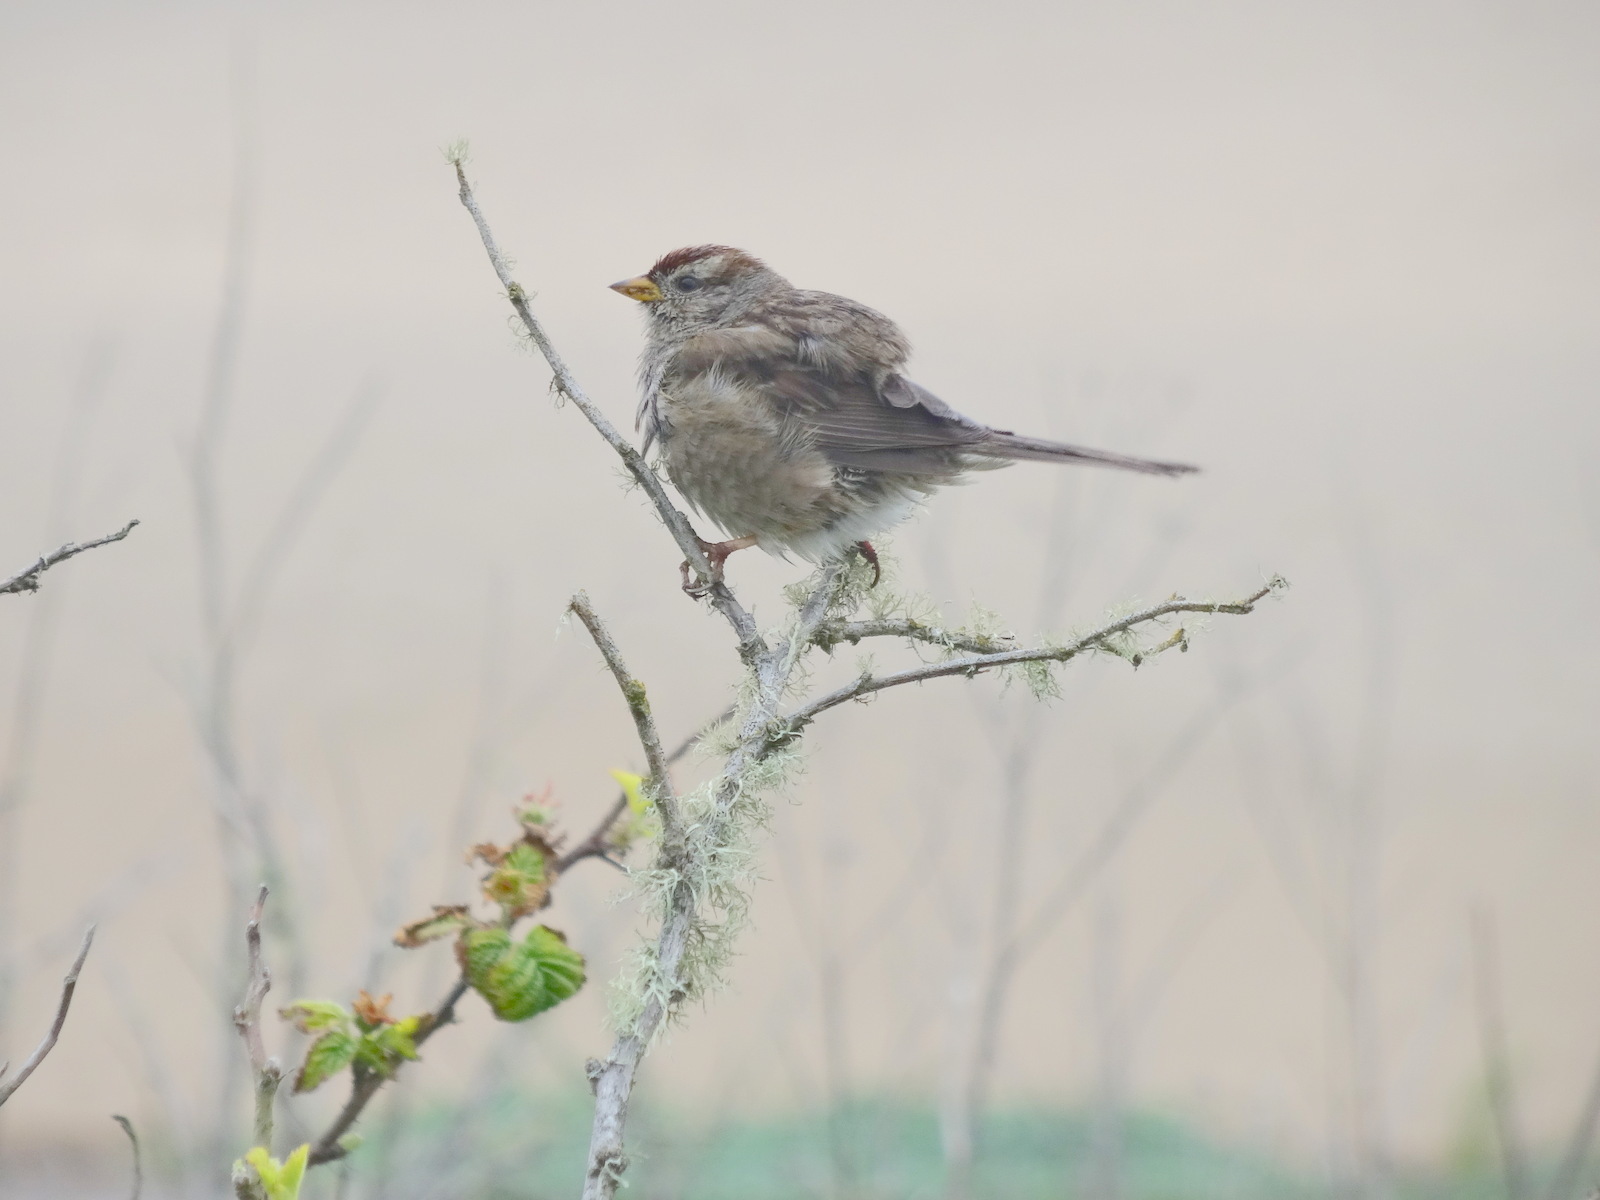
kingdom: Animalia
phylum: Chordata
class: Aves
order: Passeriformes
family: Passerellidae
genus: Zonotrichia
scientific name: Zonotrichia leucophrys
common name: White-crowned sparrow
